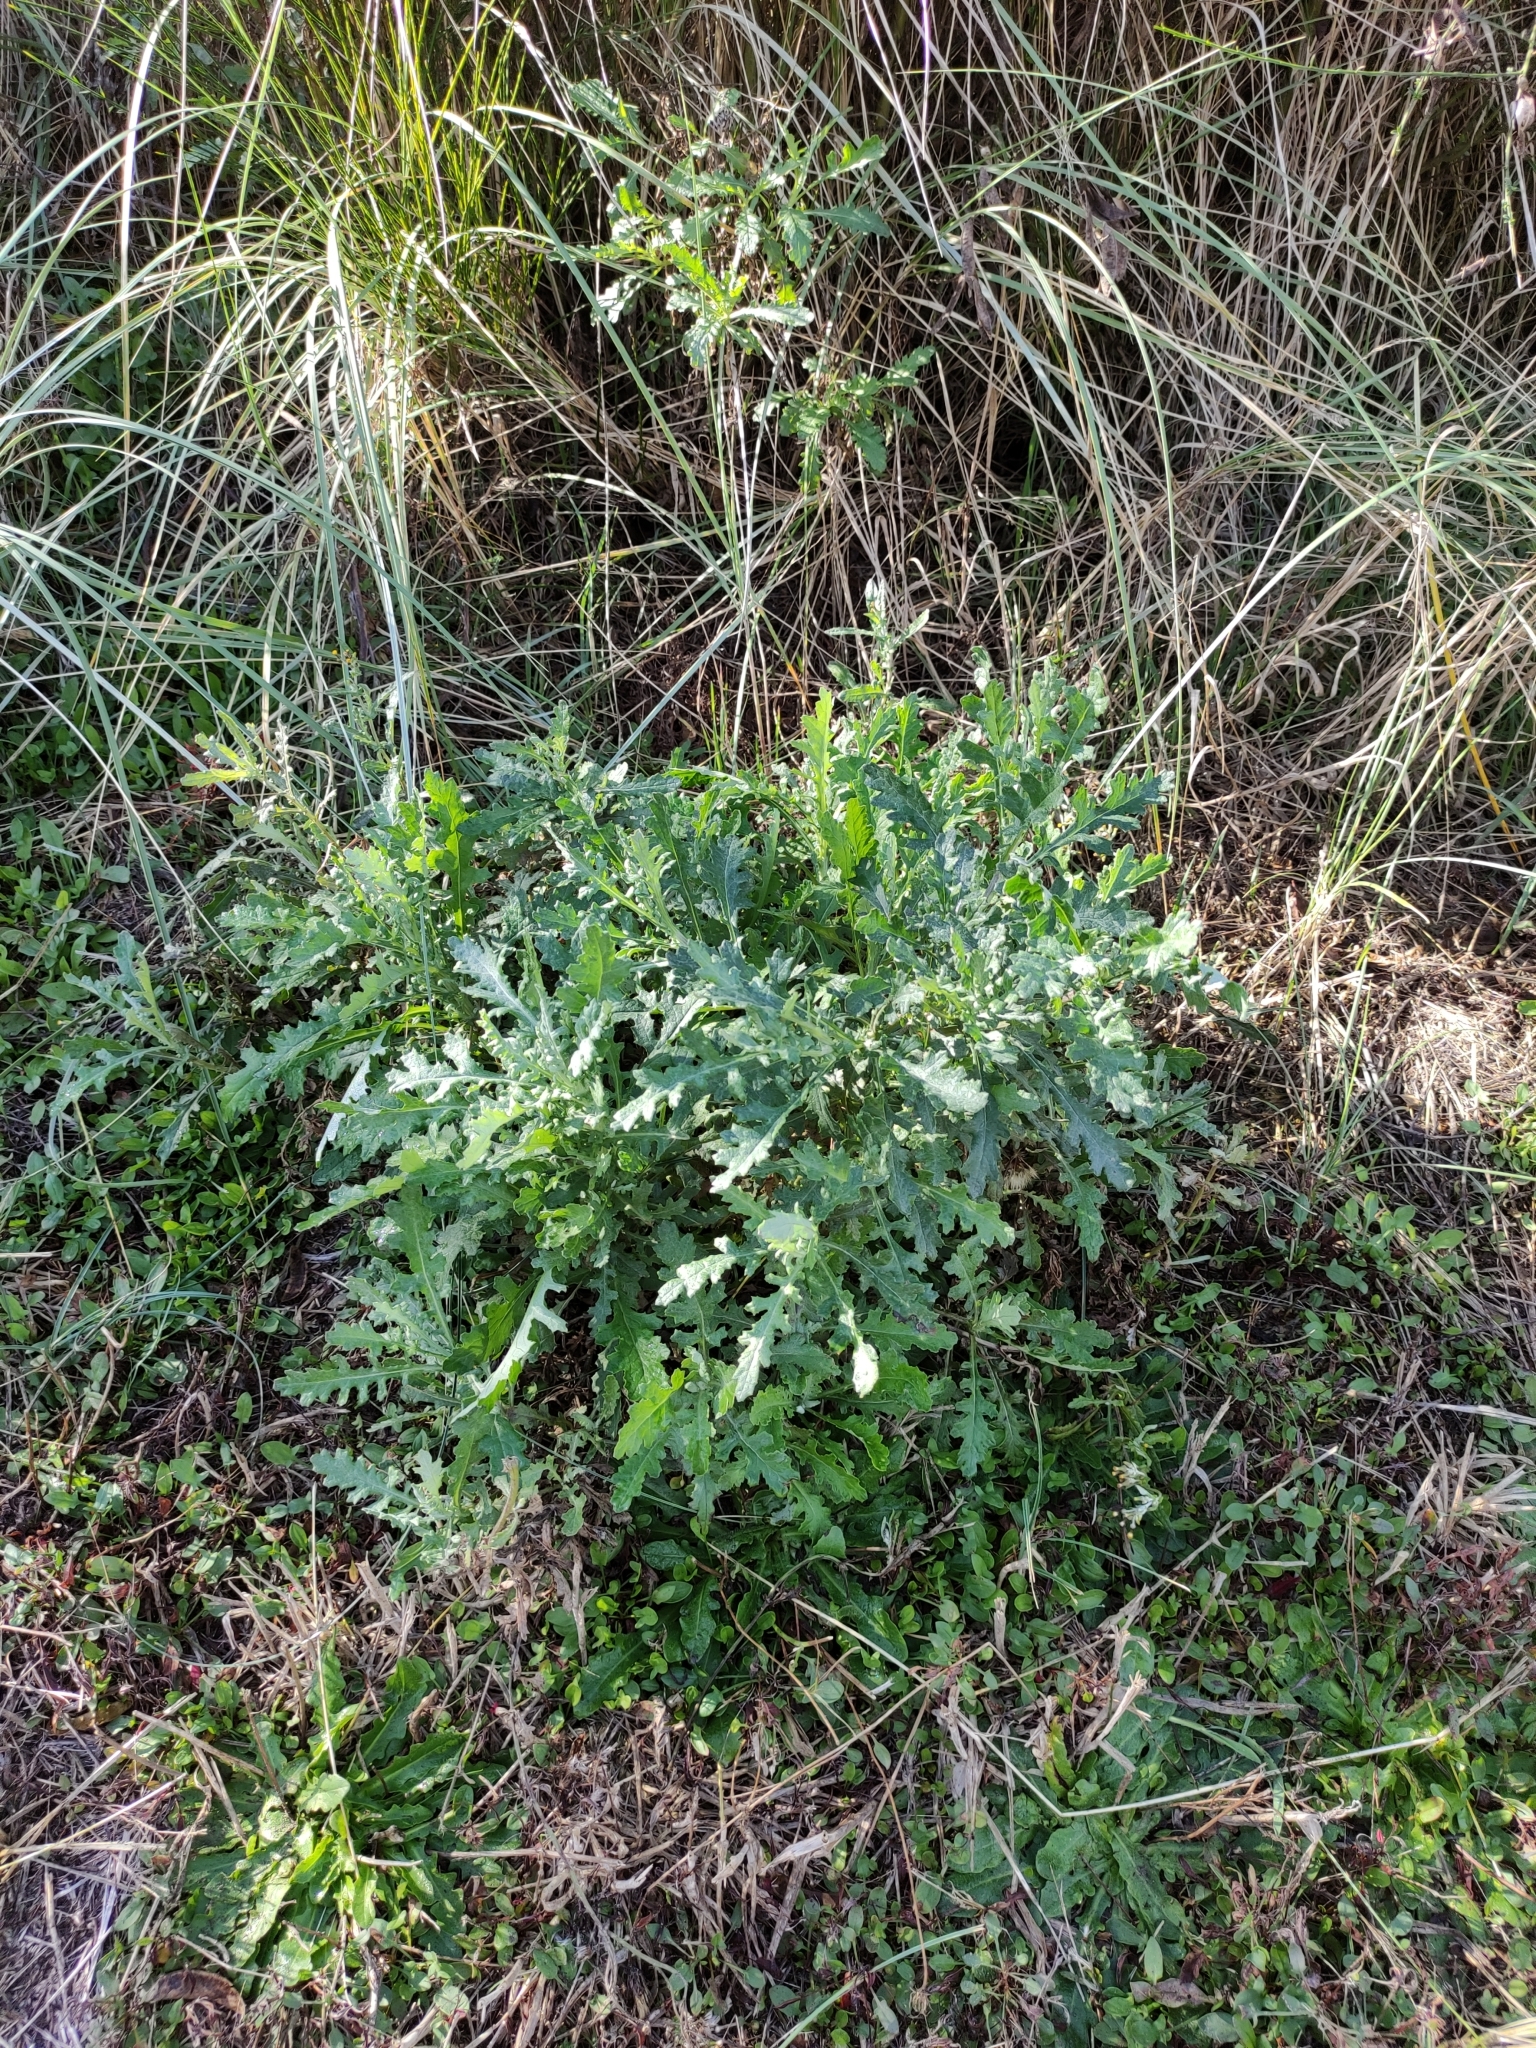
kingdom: Plantae
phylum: Tracheophyta
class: Magnoliopsida
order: Asterales
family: Asteraceae
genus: Senecio
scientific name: Senecio glomeratus
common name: Cutleaf burnweed
